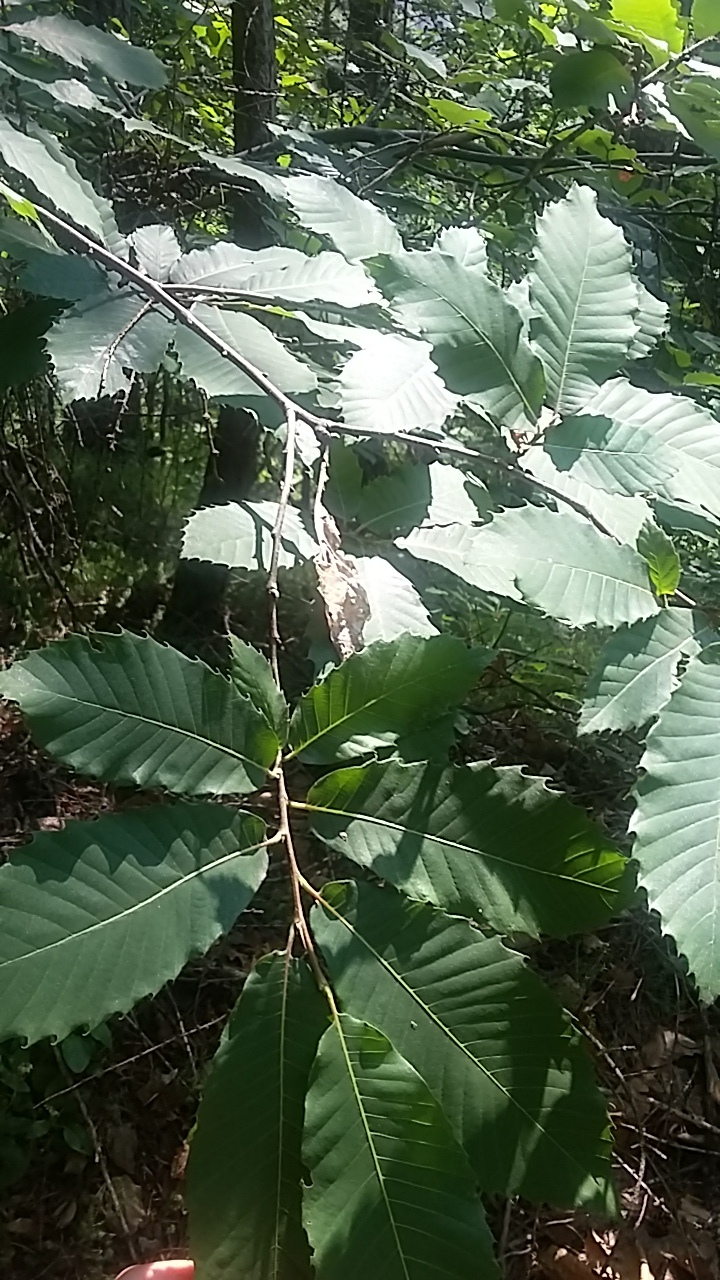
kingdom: Plantae
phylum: Tracheophyta
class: Magnoliopsida
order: Fagales
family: Fagaceae
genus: Castanea
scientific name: Castanea sativa
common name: Sweet chestnut
